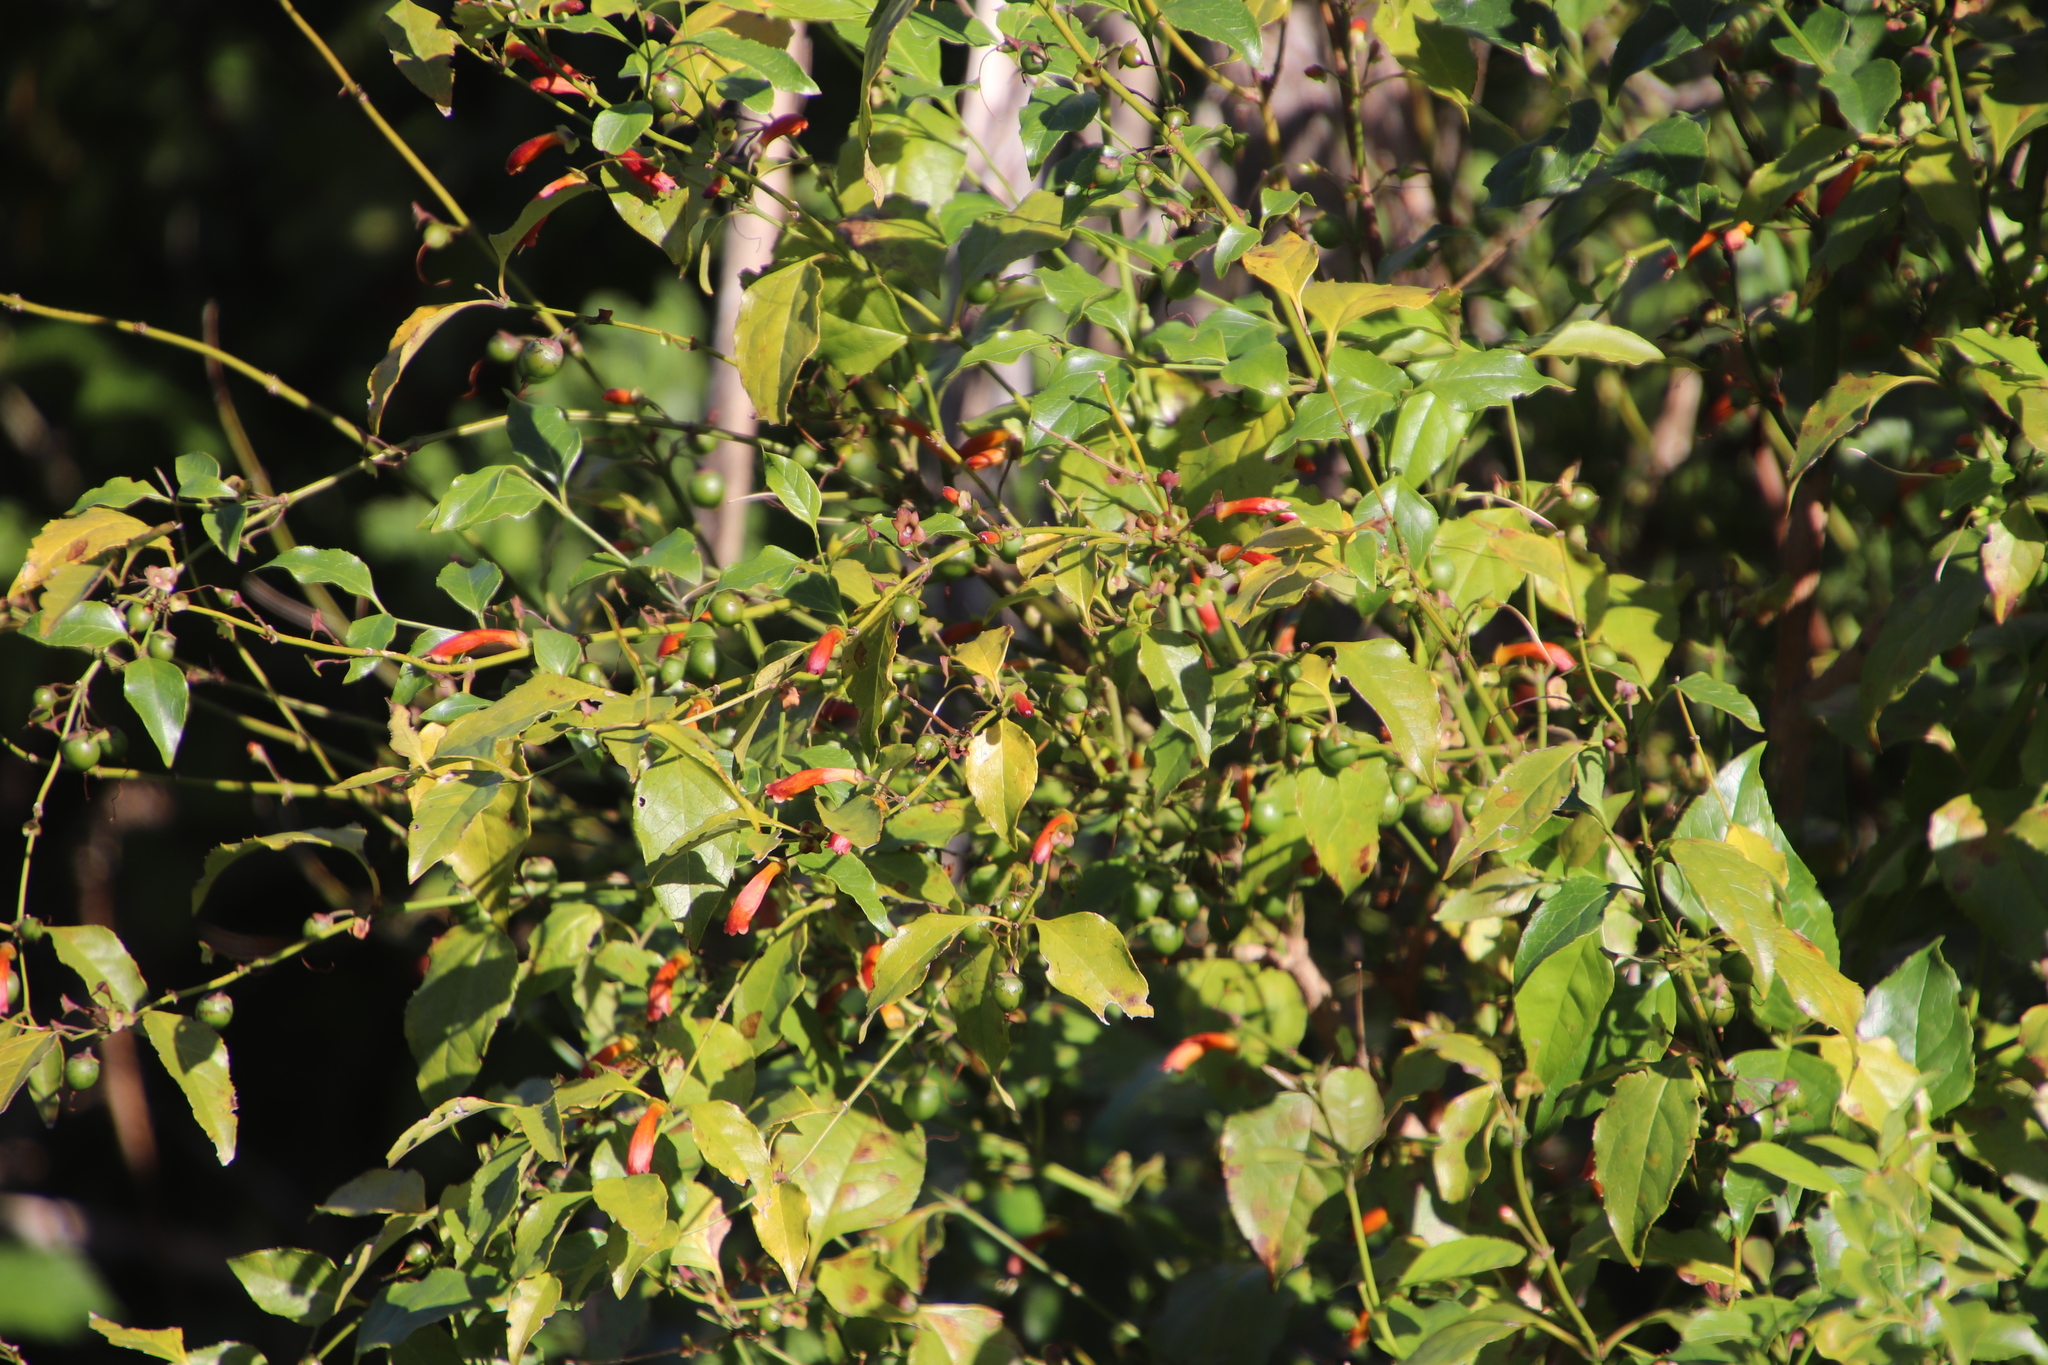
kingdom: Plantae
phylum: Tracheophyta
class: Magnoliopsida
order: Lamiales
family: Stilbaceae
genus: Halleria
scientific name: Halleria lucida
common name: Tree fuschia
